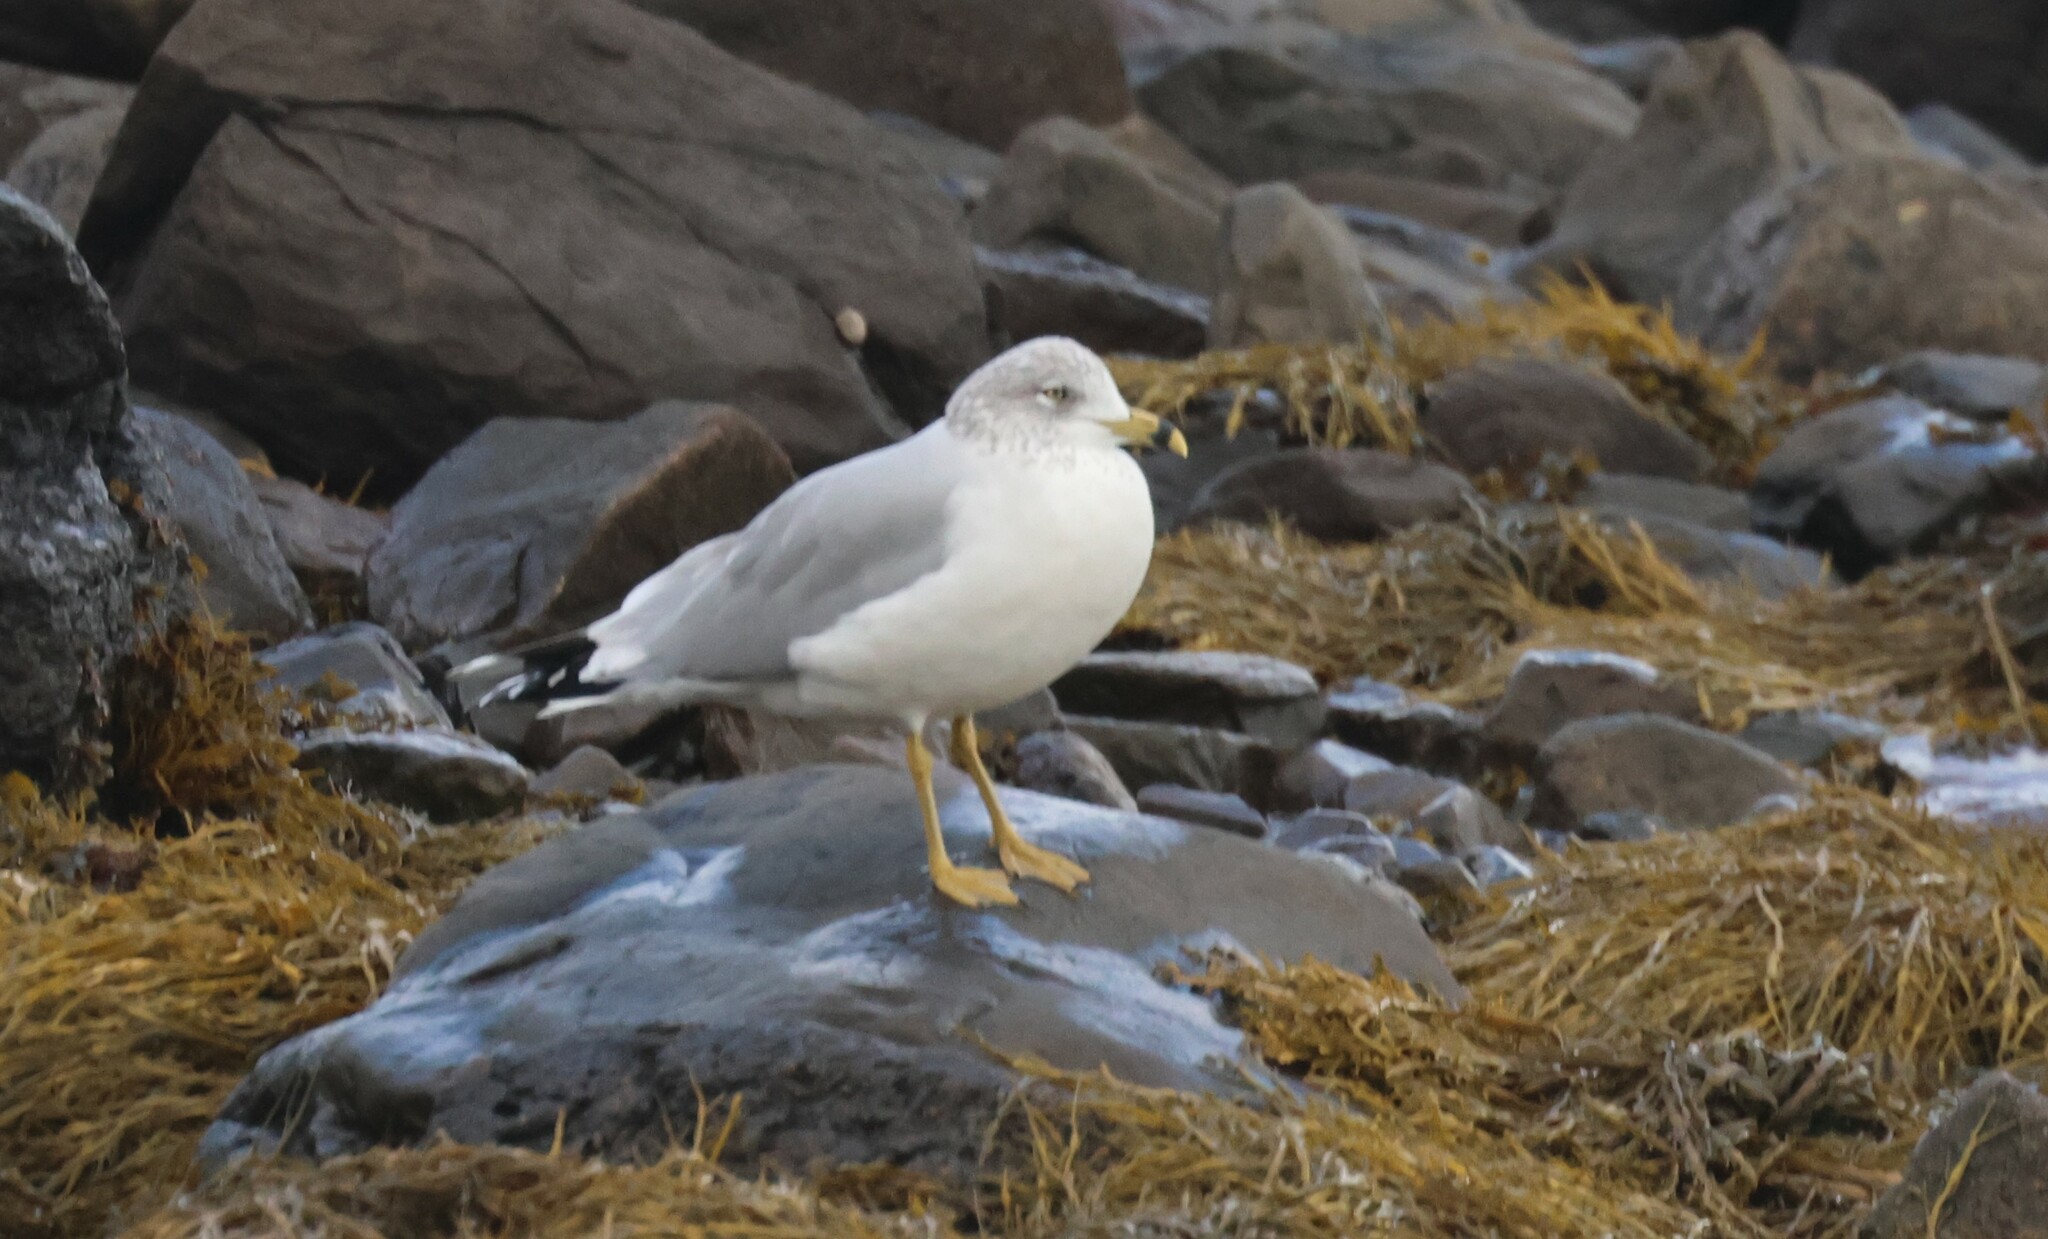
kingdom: Animalia
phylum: Chordata
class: Aves
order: Charadriiformes
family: Laridae
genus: Larus
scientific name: Larus delawarensis
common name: Ring-billed gull
